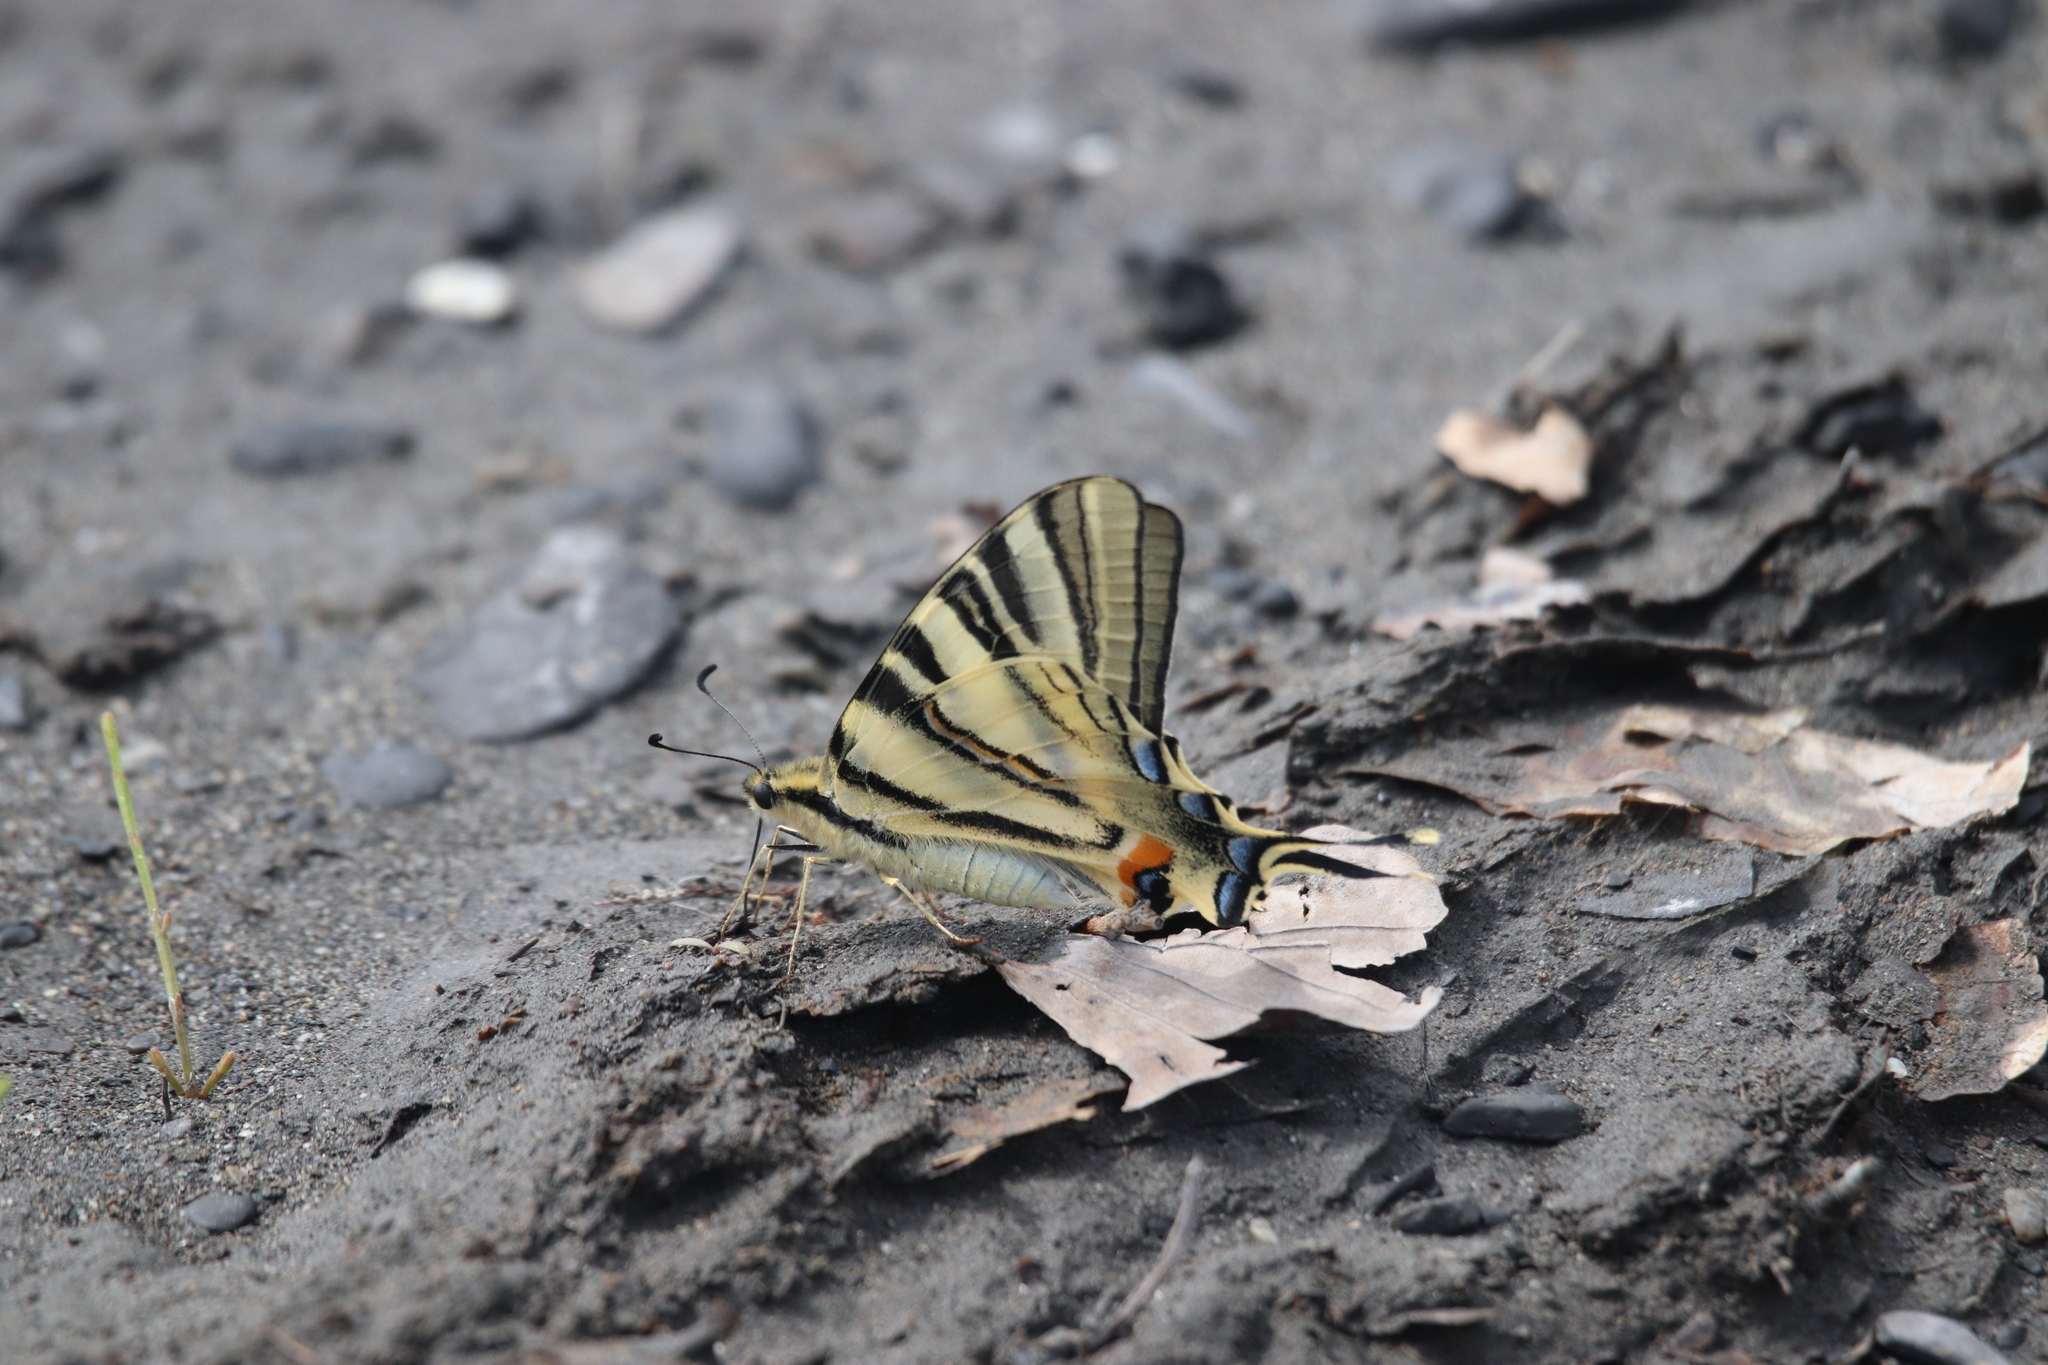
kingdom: Animalia
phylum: Arthropoda
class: Insecta
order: Lepidoptera
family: Papilionidae
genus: Iphiclides
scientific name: Iphiclides podalirius
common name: Scarce swallowtail
